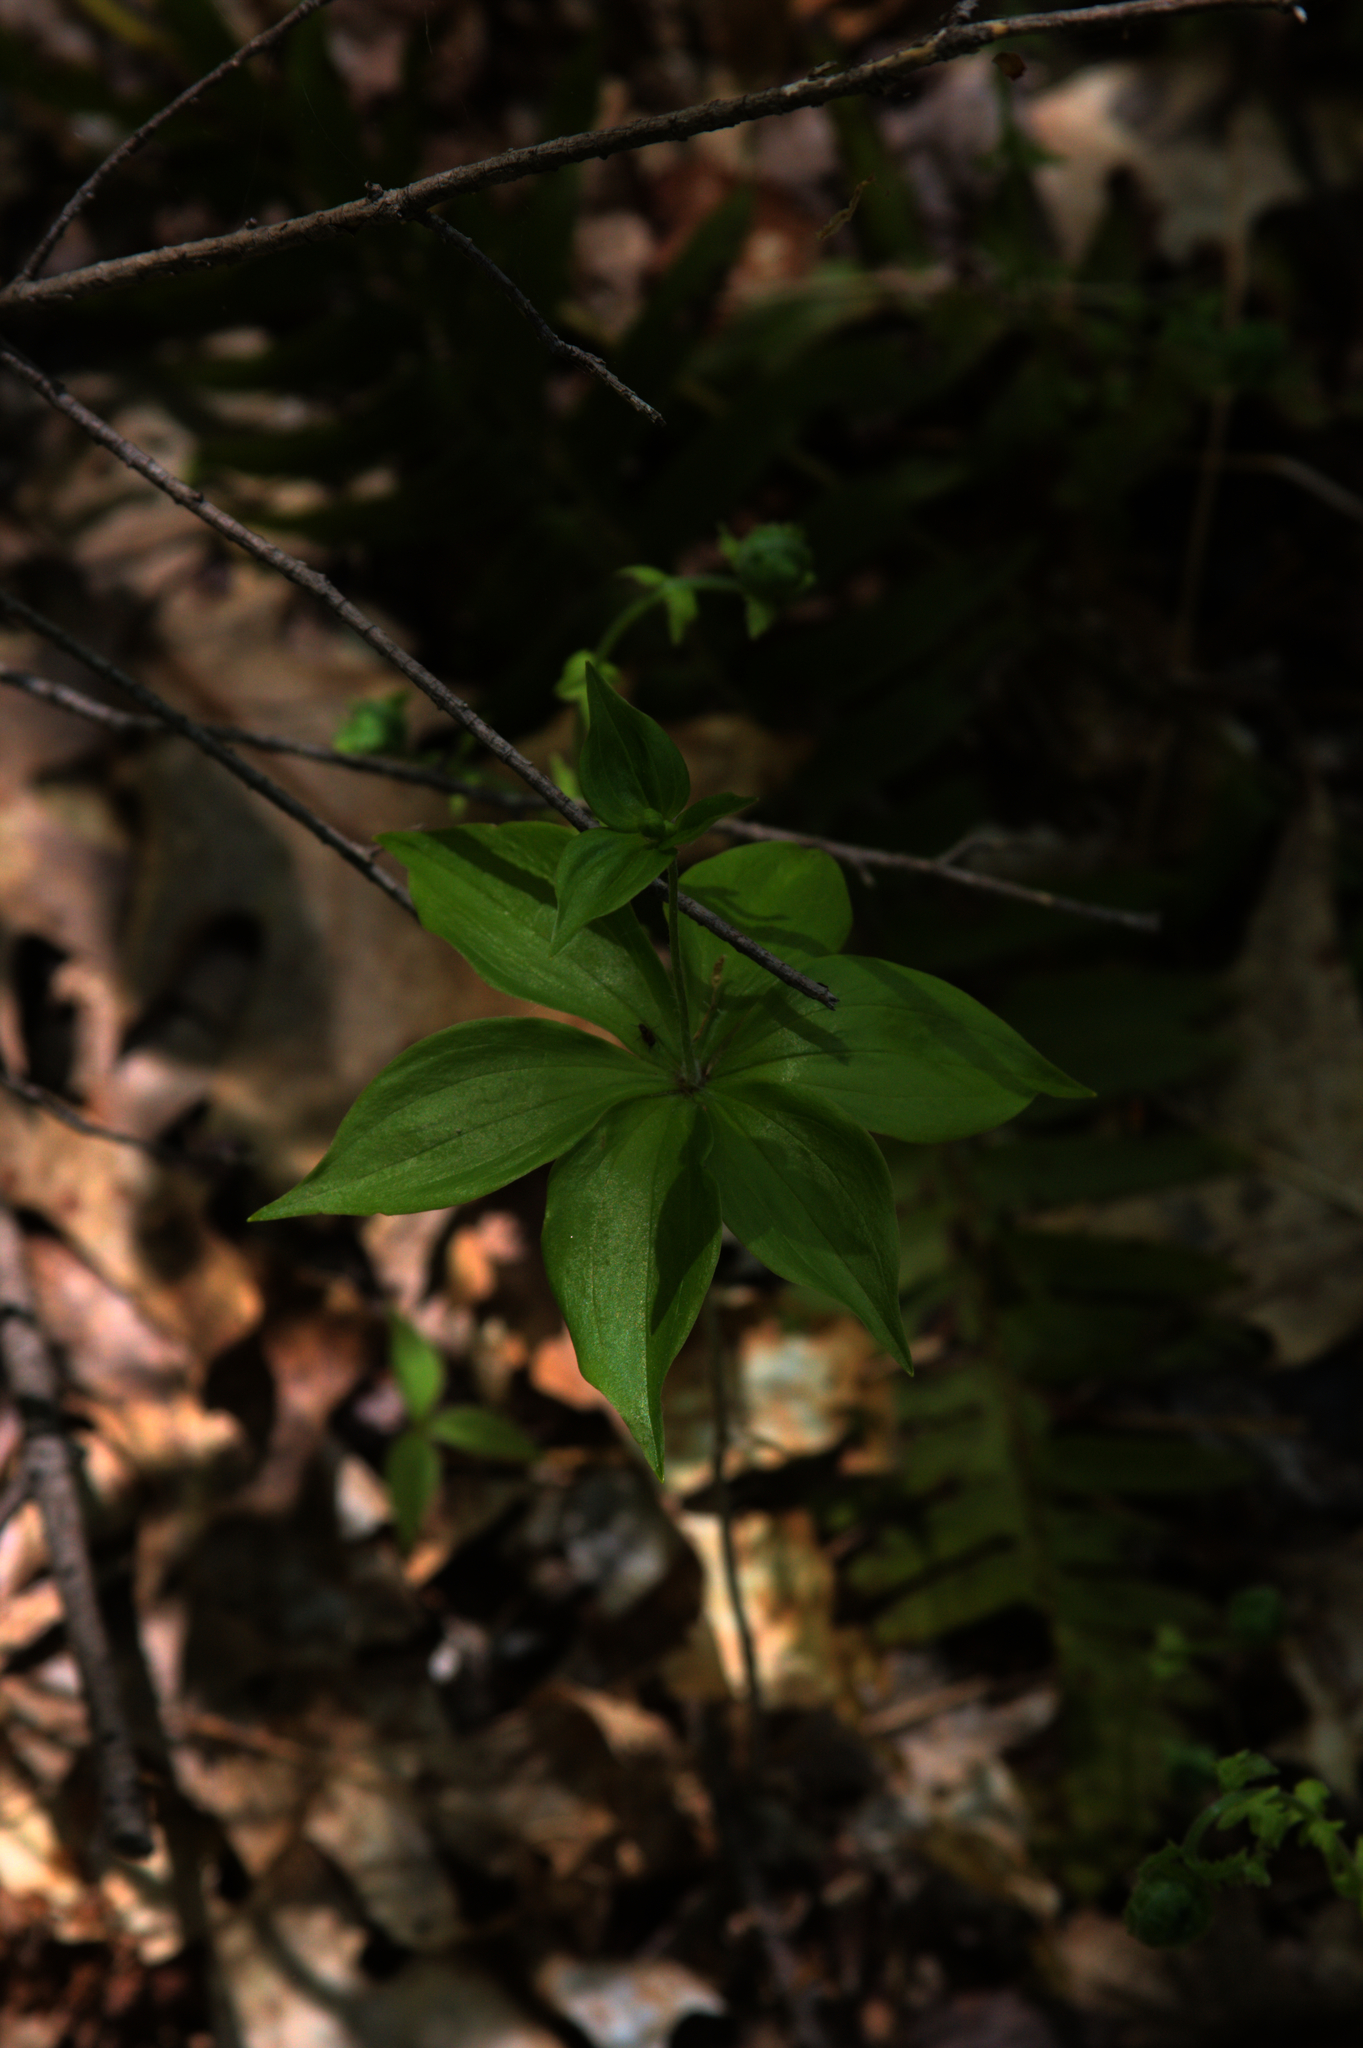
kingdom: Plantae
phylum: Tracheophyta
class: Liliopsida
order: Liliales
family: Liliaceae
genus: Medeola
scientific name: Medeola virginiana
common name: Indian cucumber-root
